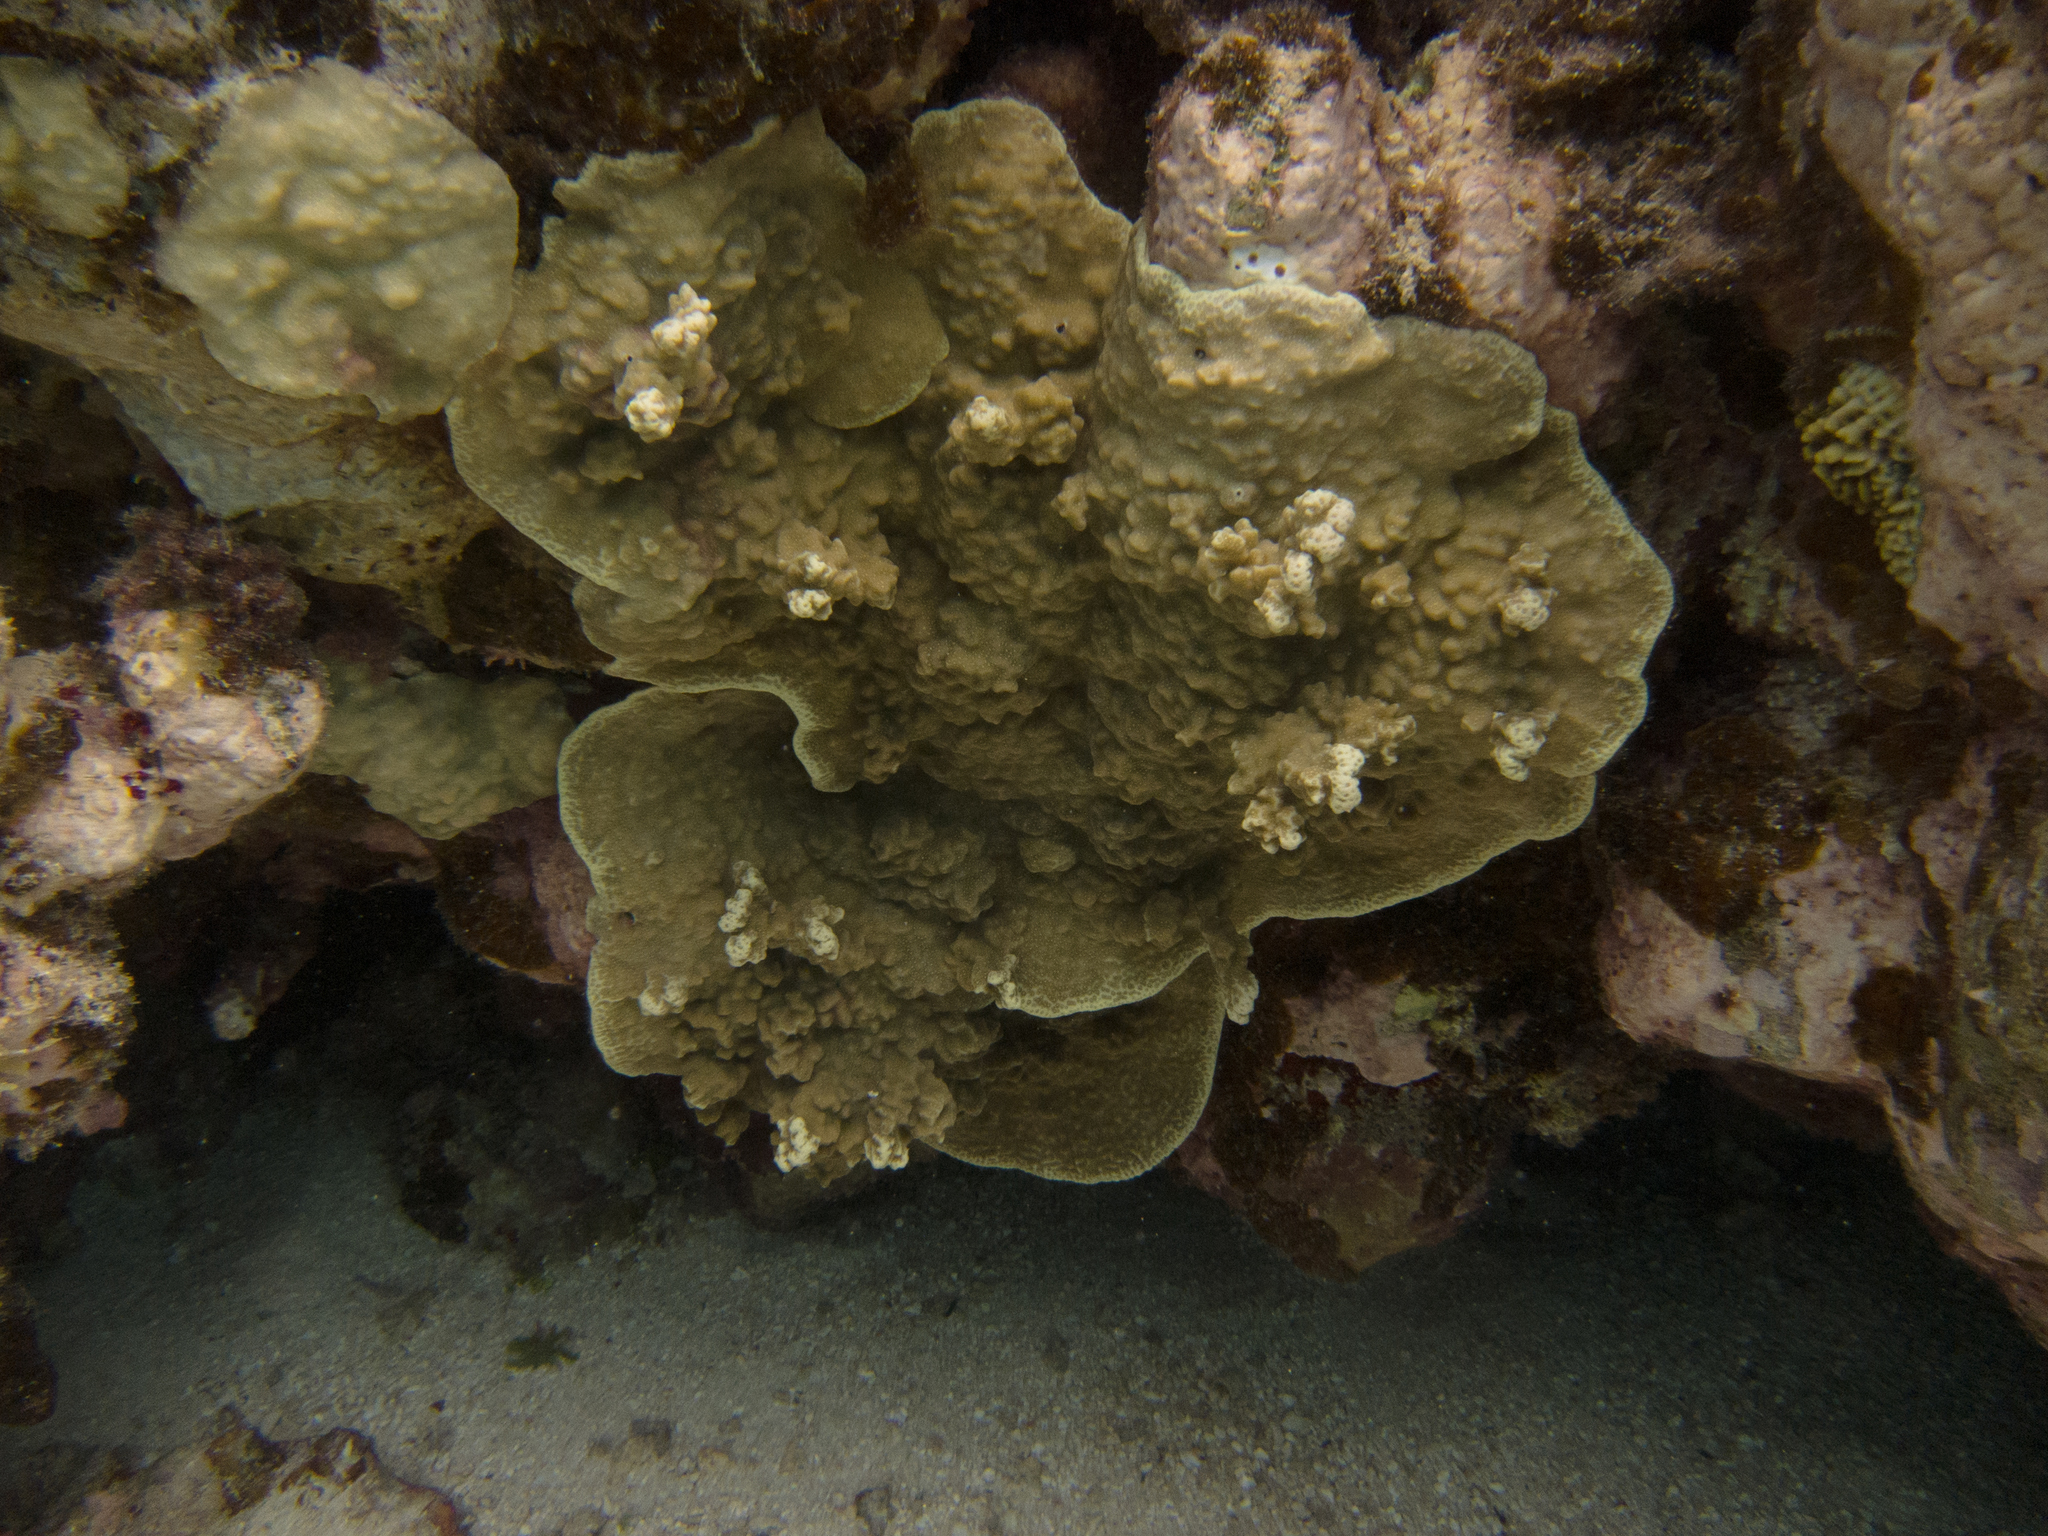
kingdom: Animalia
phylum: Cnidaria
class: Anthozoa
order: Scleractinia
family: Poritidae
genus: Porites
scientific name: Porites rus
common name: Hump coral
